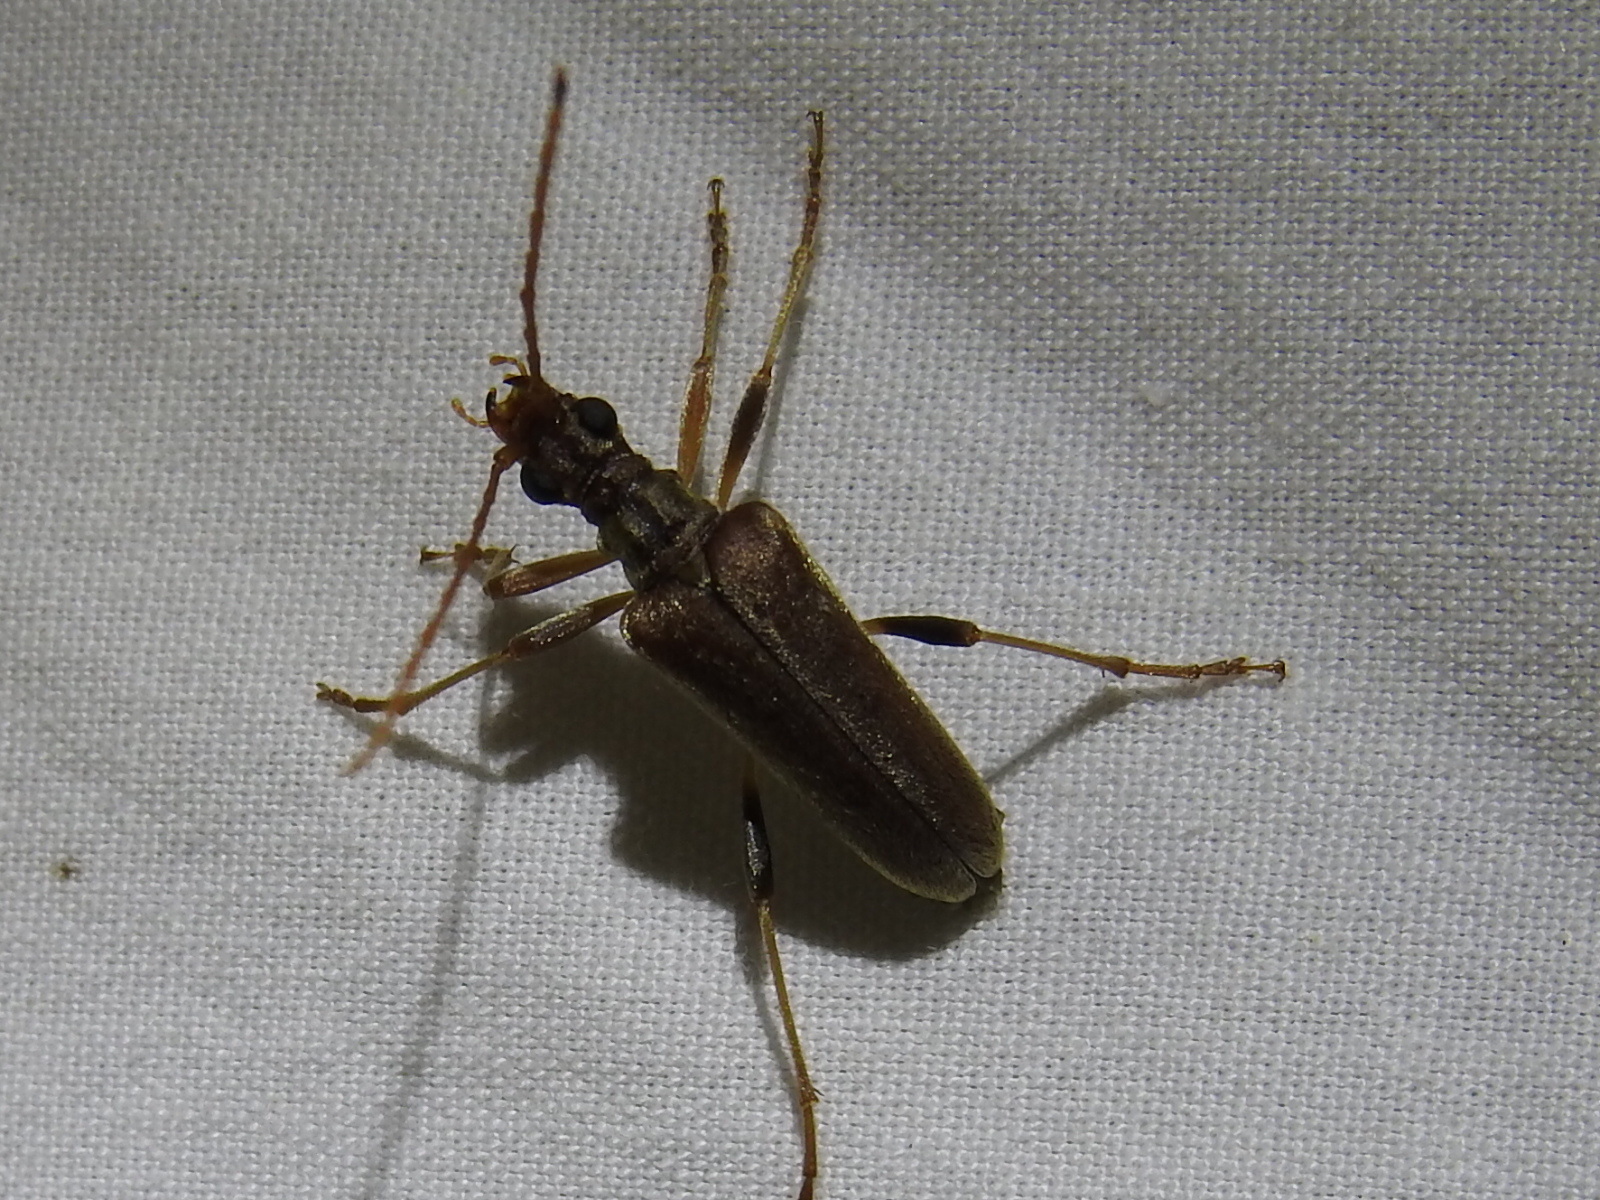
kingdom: Animalia
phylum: Arthropoda
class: Insecta
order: Coleoptera
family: Cerambycidae
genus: Stenocorus
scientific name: Stenocorus cinnamopterus
